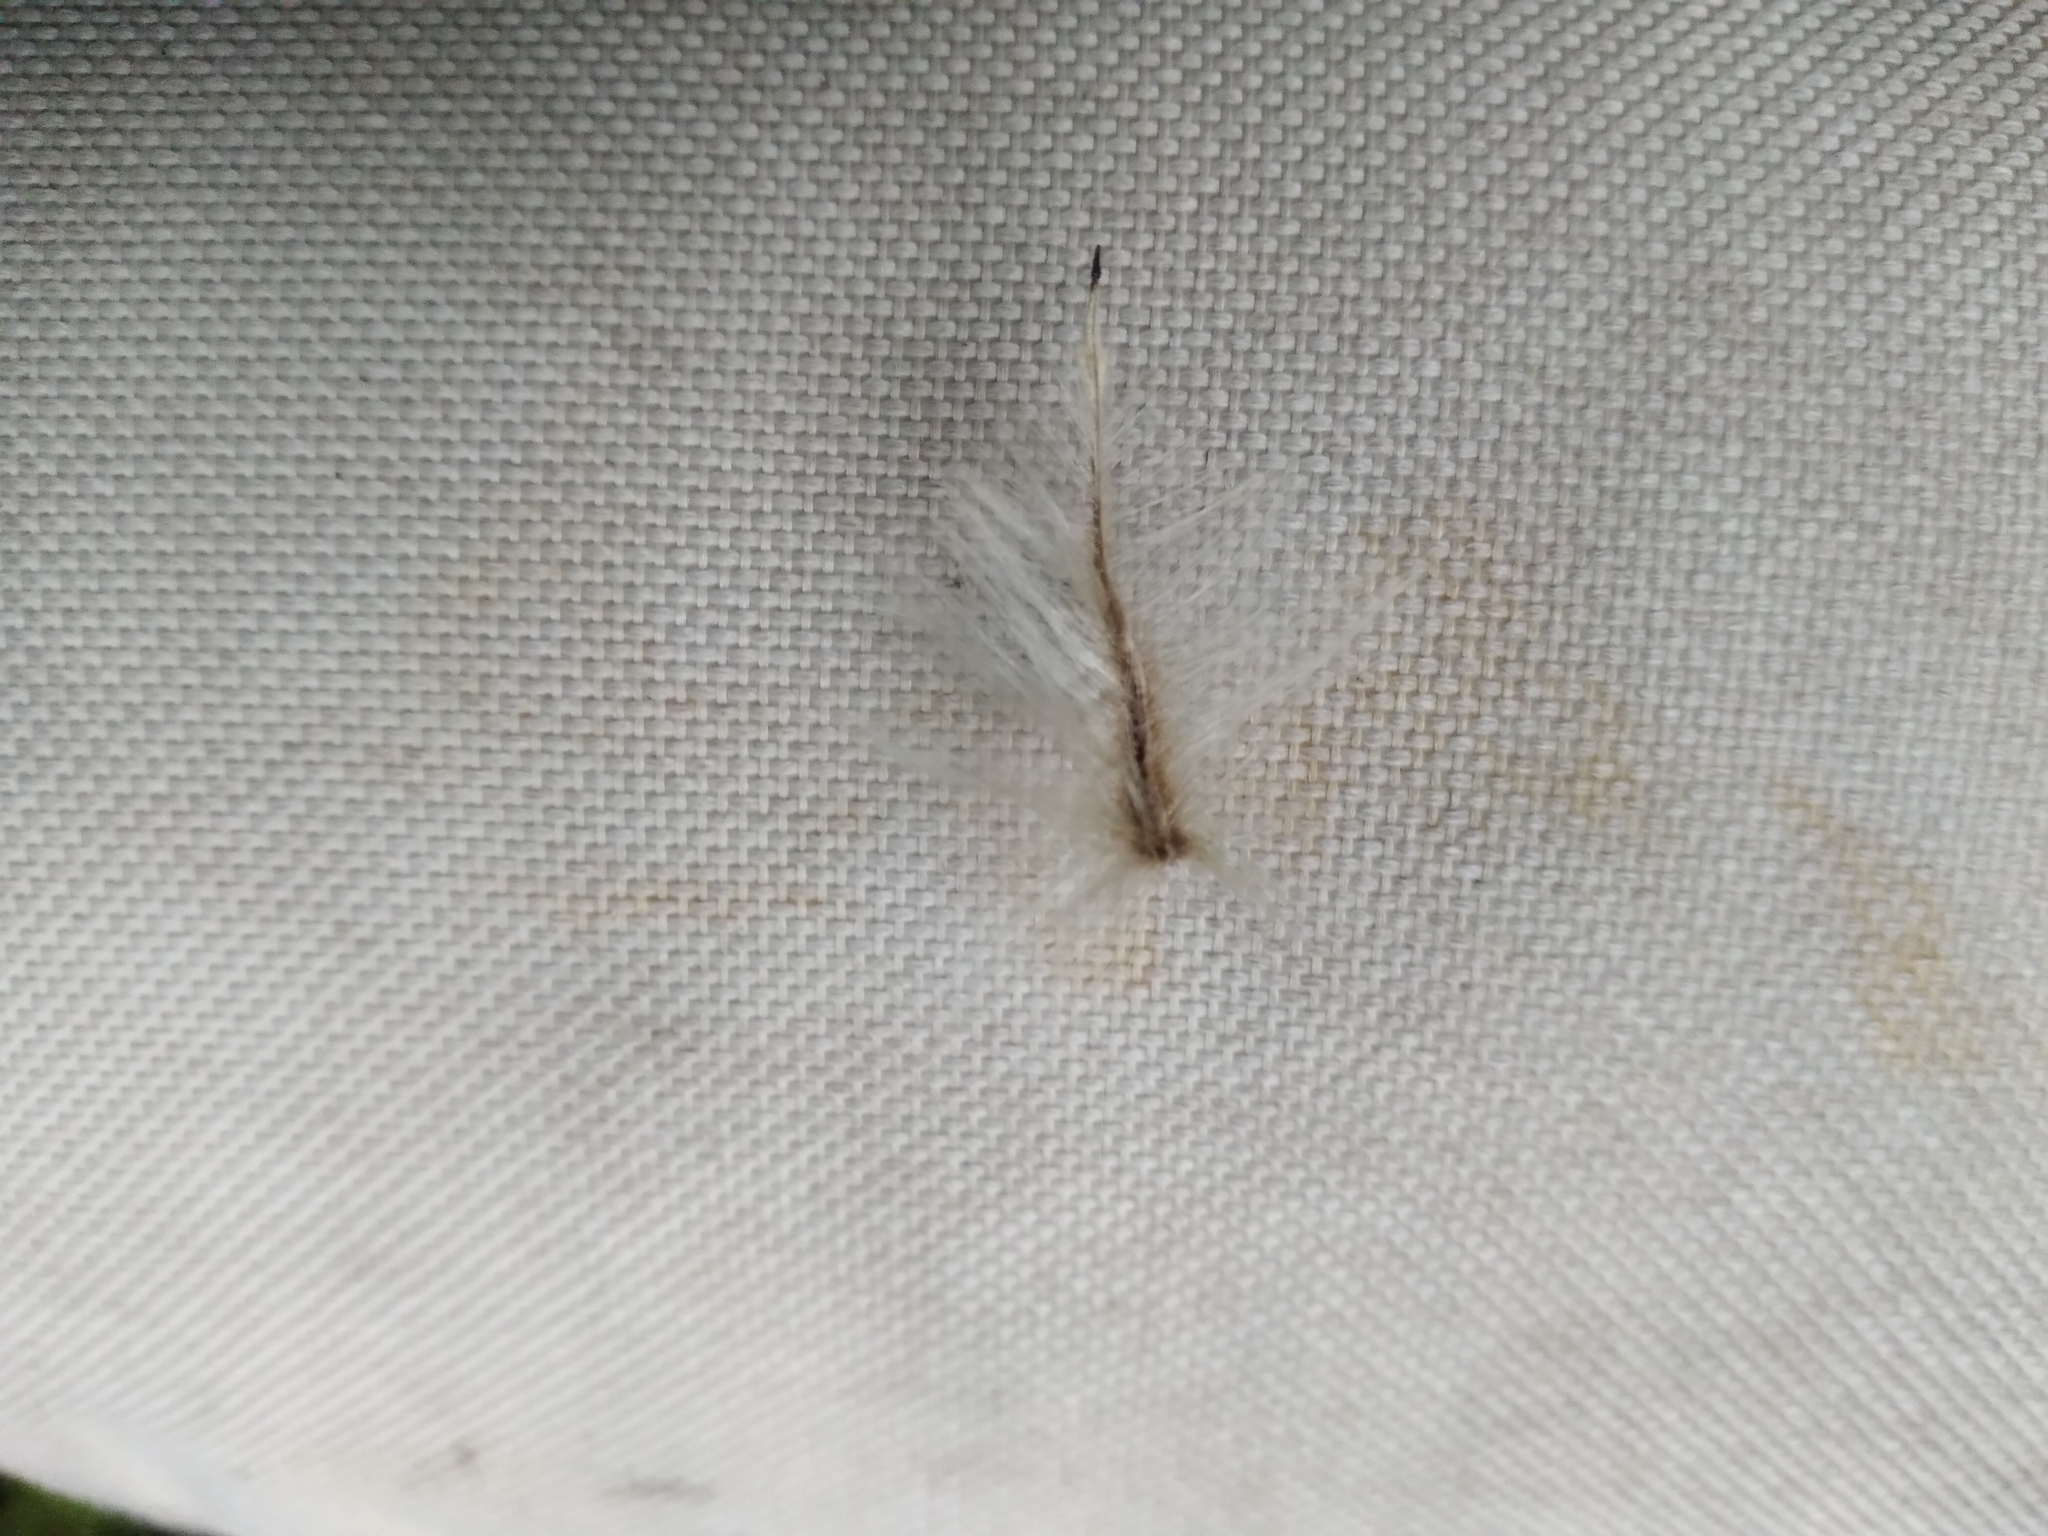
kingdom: Plantae
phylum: Tracheophyta
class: Magnoliopsida
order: Laurales
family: Atherospermataceae
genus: Laurelia
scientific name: Laurelia novae-zelandiae
